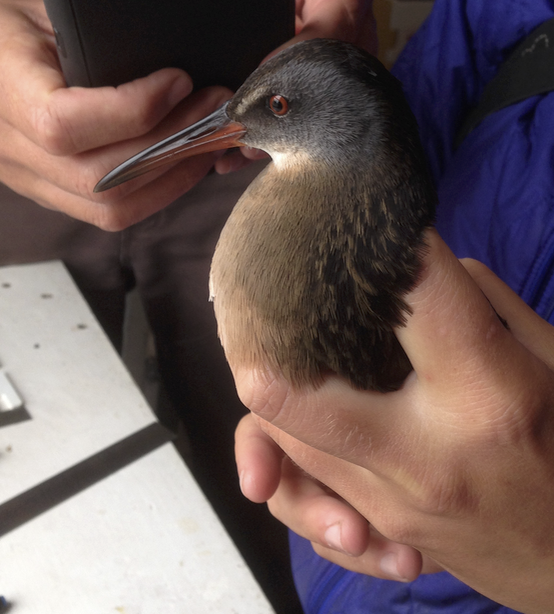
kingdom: Animalia
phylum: Chordata
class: Aves
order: Gruiformes
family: Rallidae
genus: Rallus
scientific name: Rallus limicola
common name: Virginia rail
